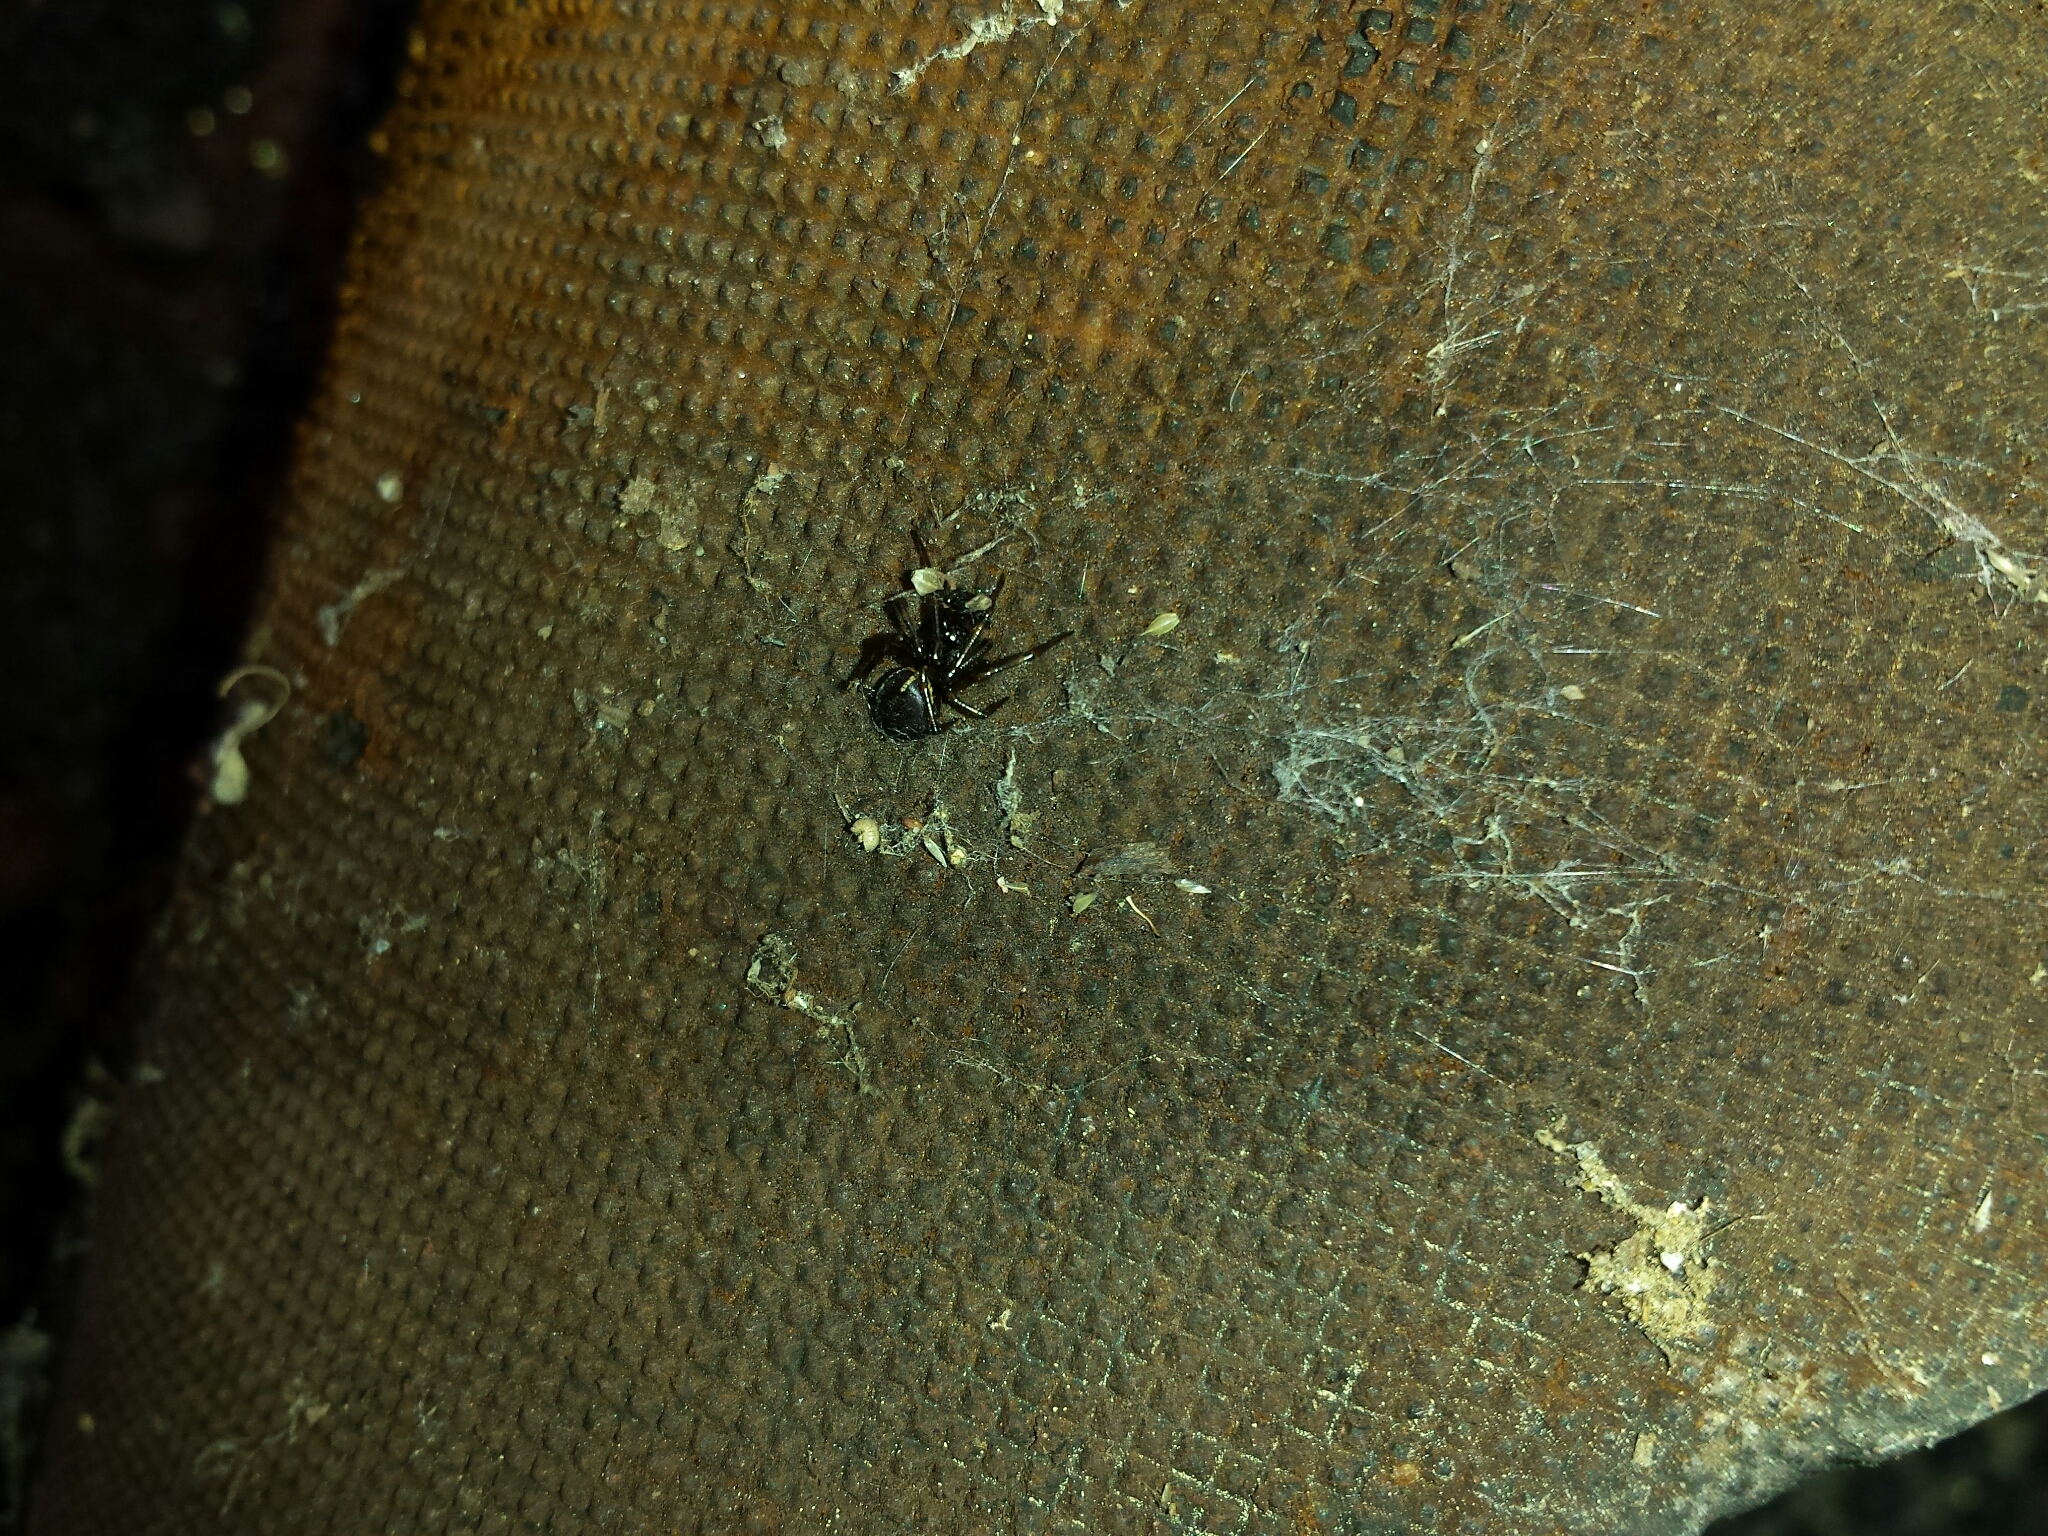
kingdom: Animalia
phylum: Arthropoda
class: Arachnida
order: Araneae
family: Theridiidae
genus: Steatoda
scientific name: Steatoda borealis
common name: Boreal combfoot
